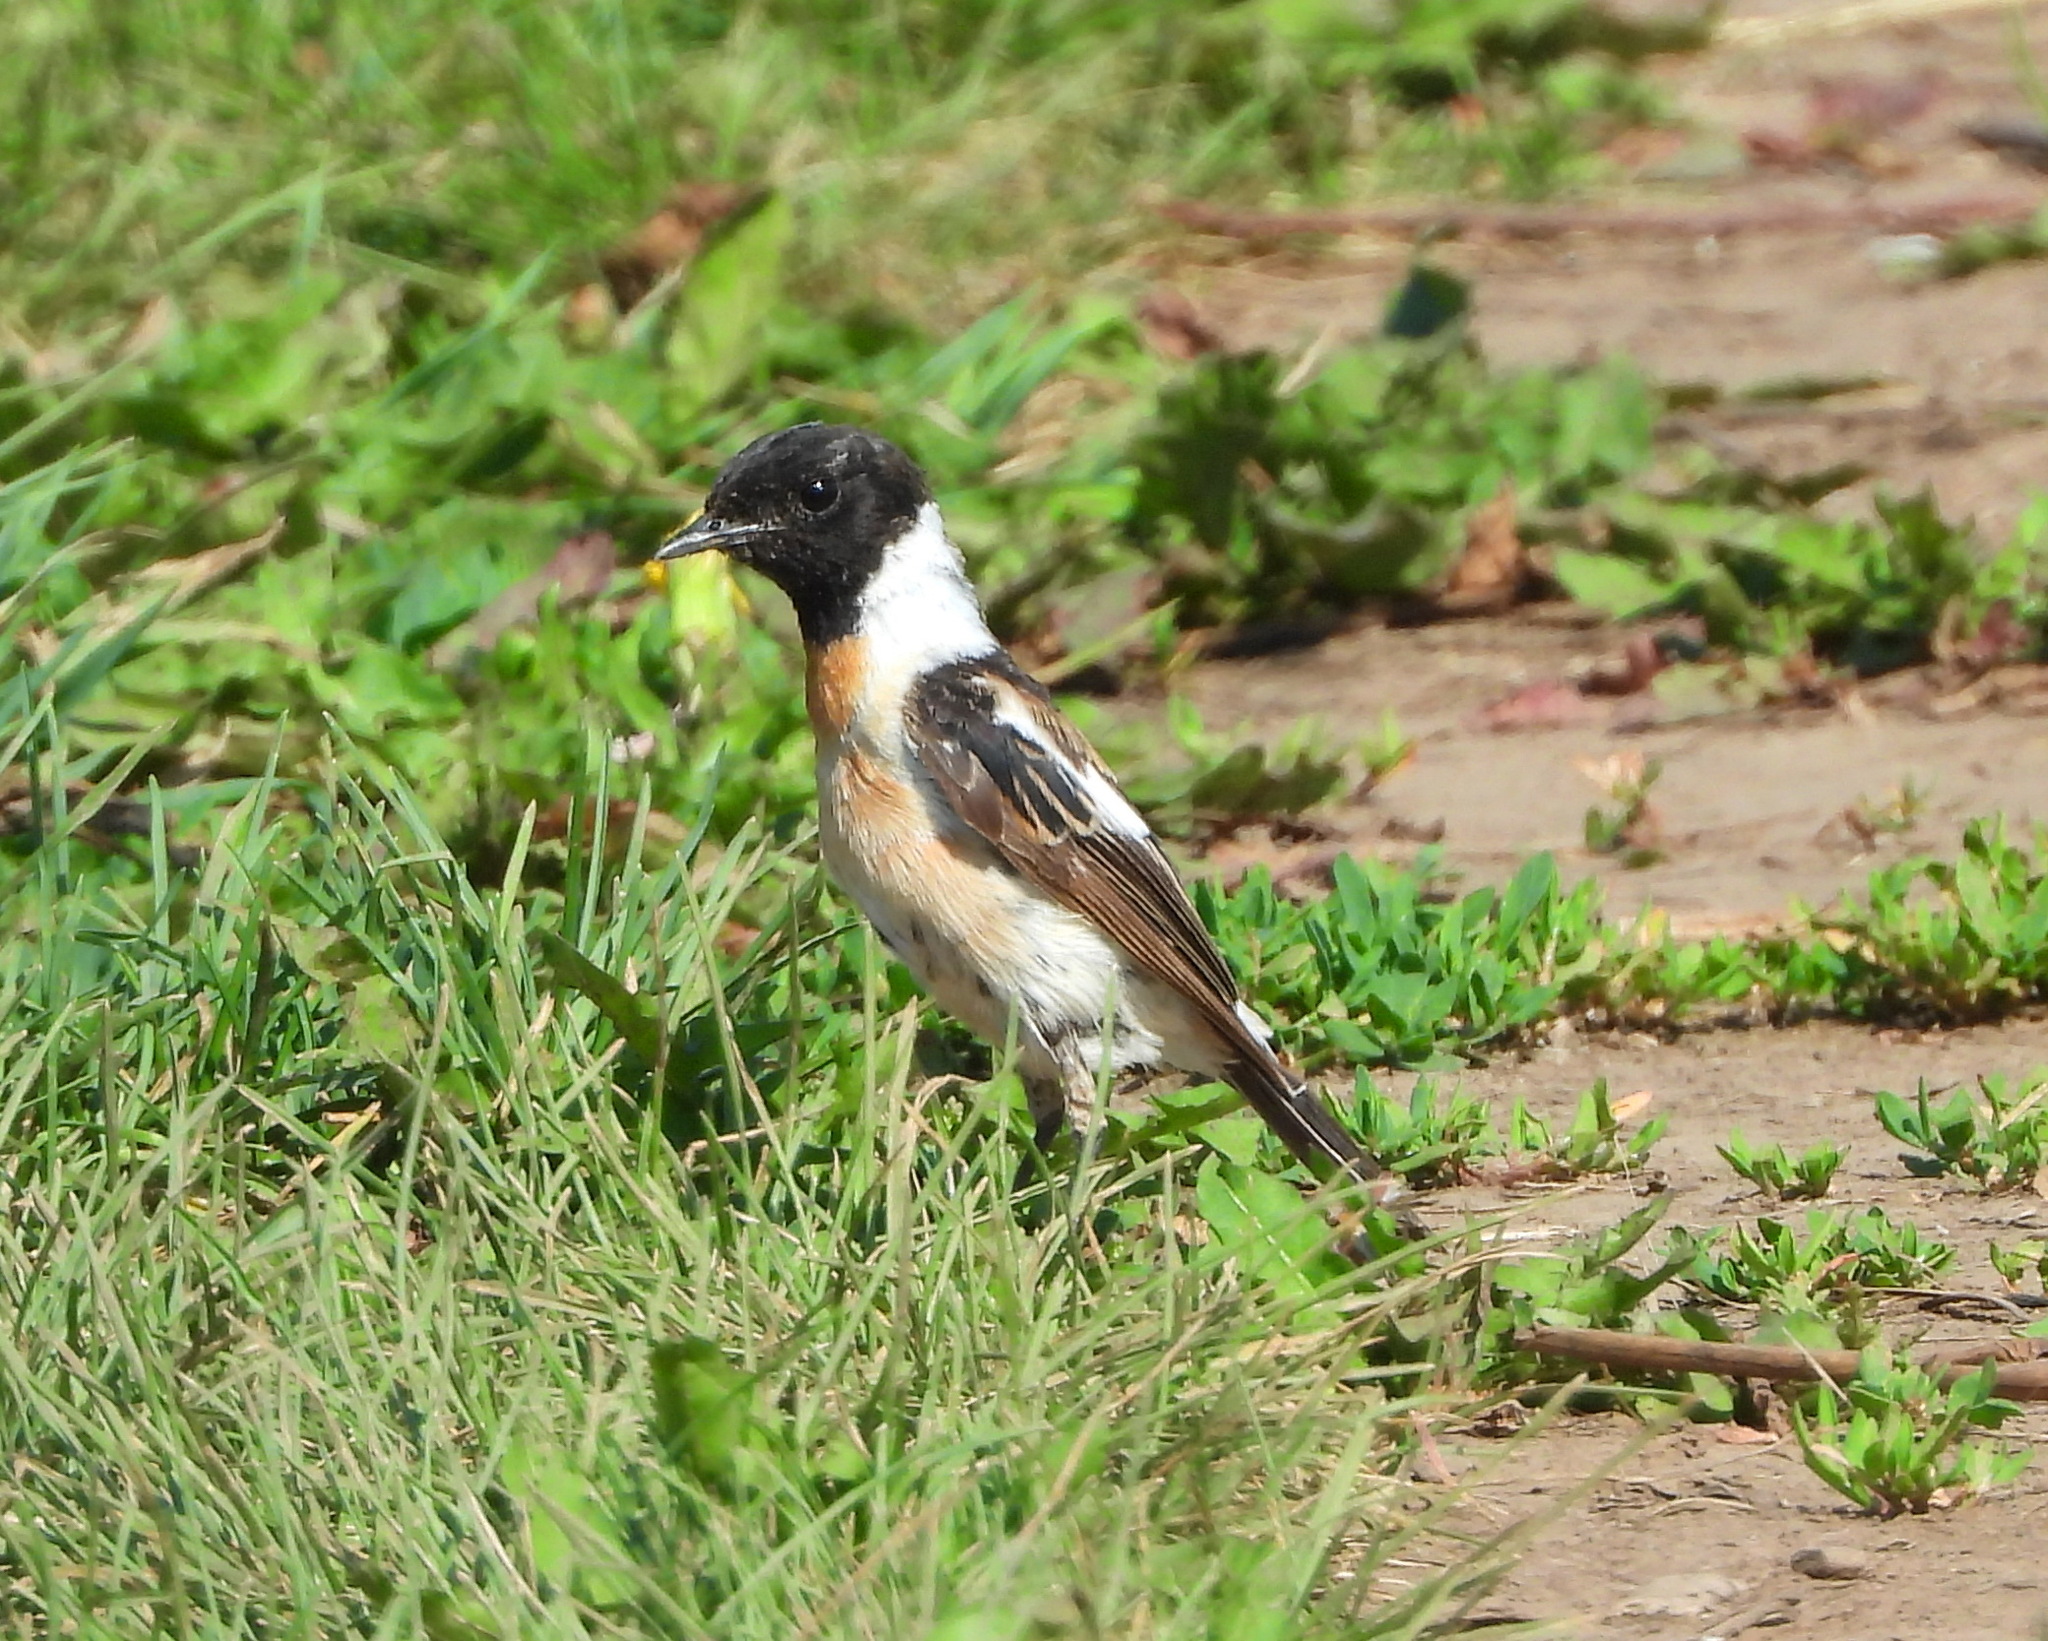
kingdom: Animalia
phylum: Chordata
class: Aves
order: Passeriformes
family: Muscicapidae
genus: Saxicola
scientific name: Saxicola maurus
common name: Siberian stonechat
